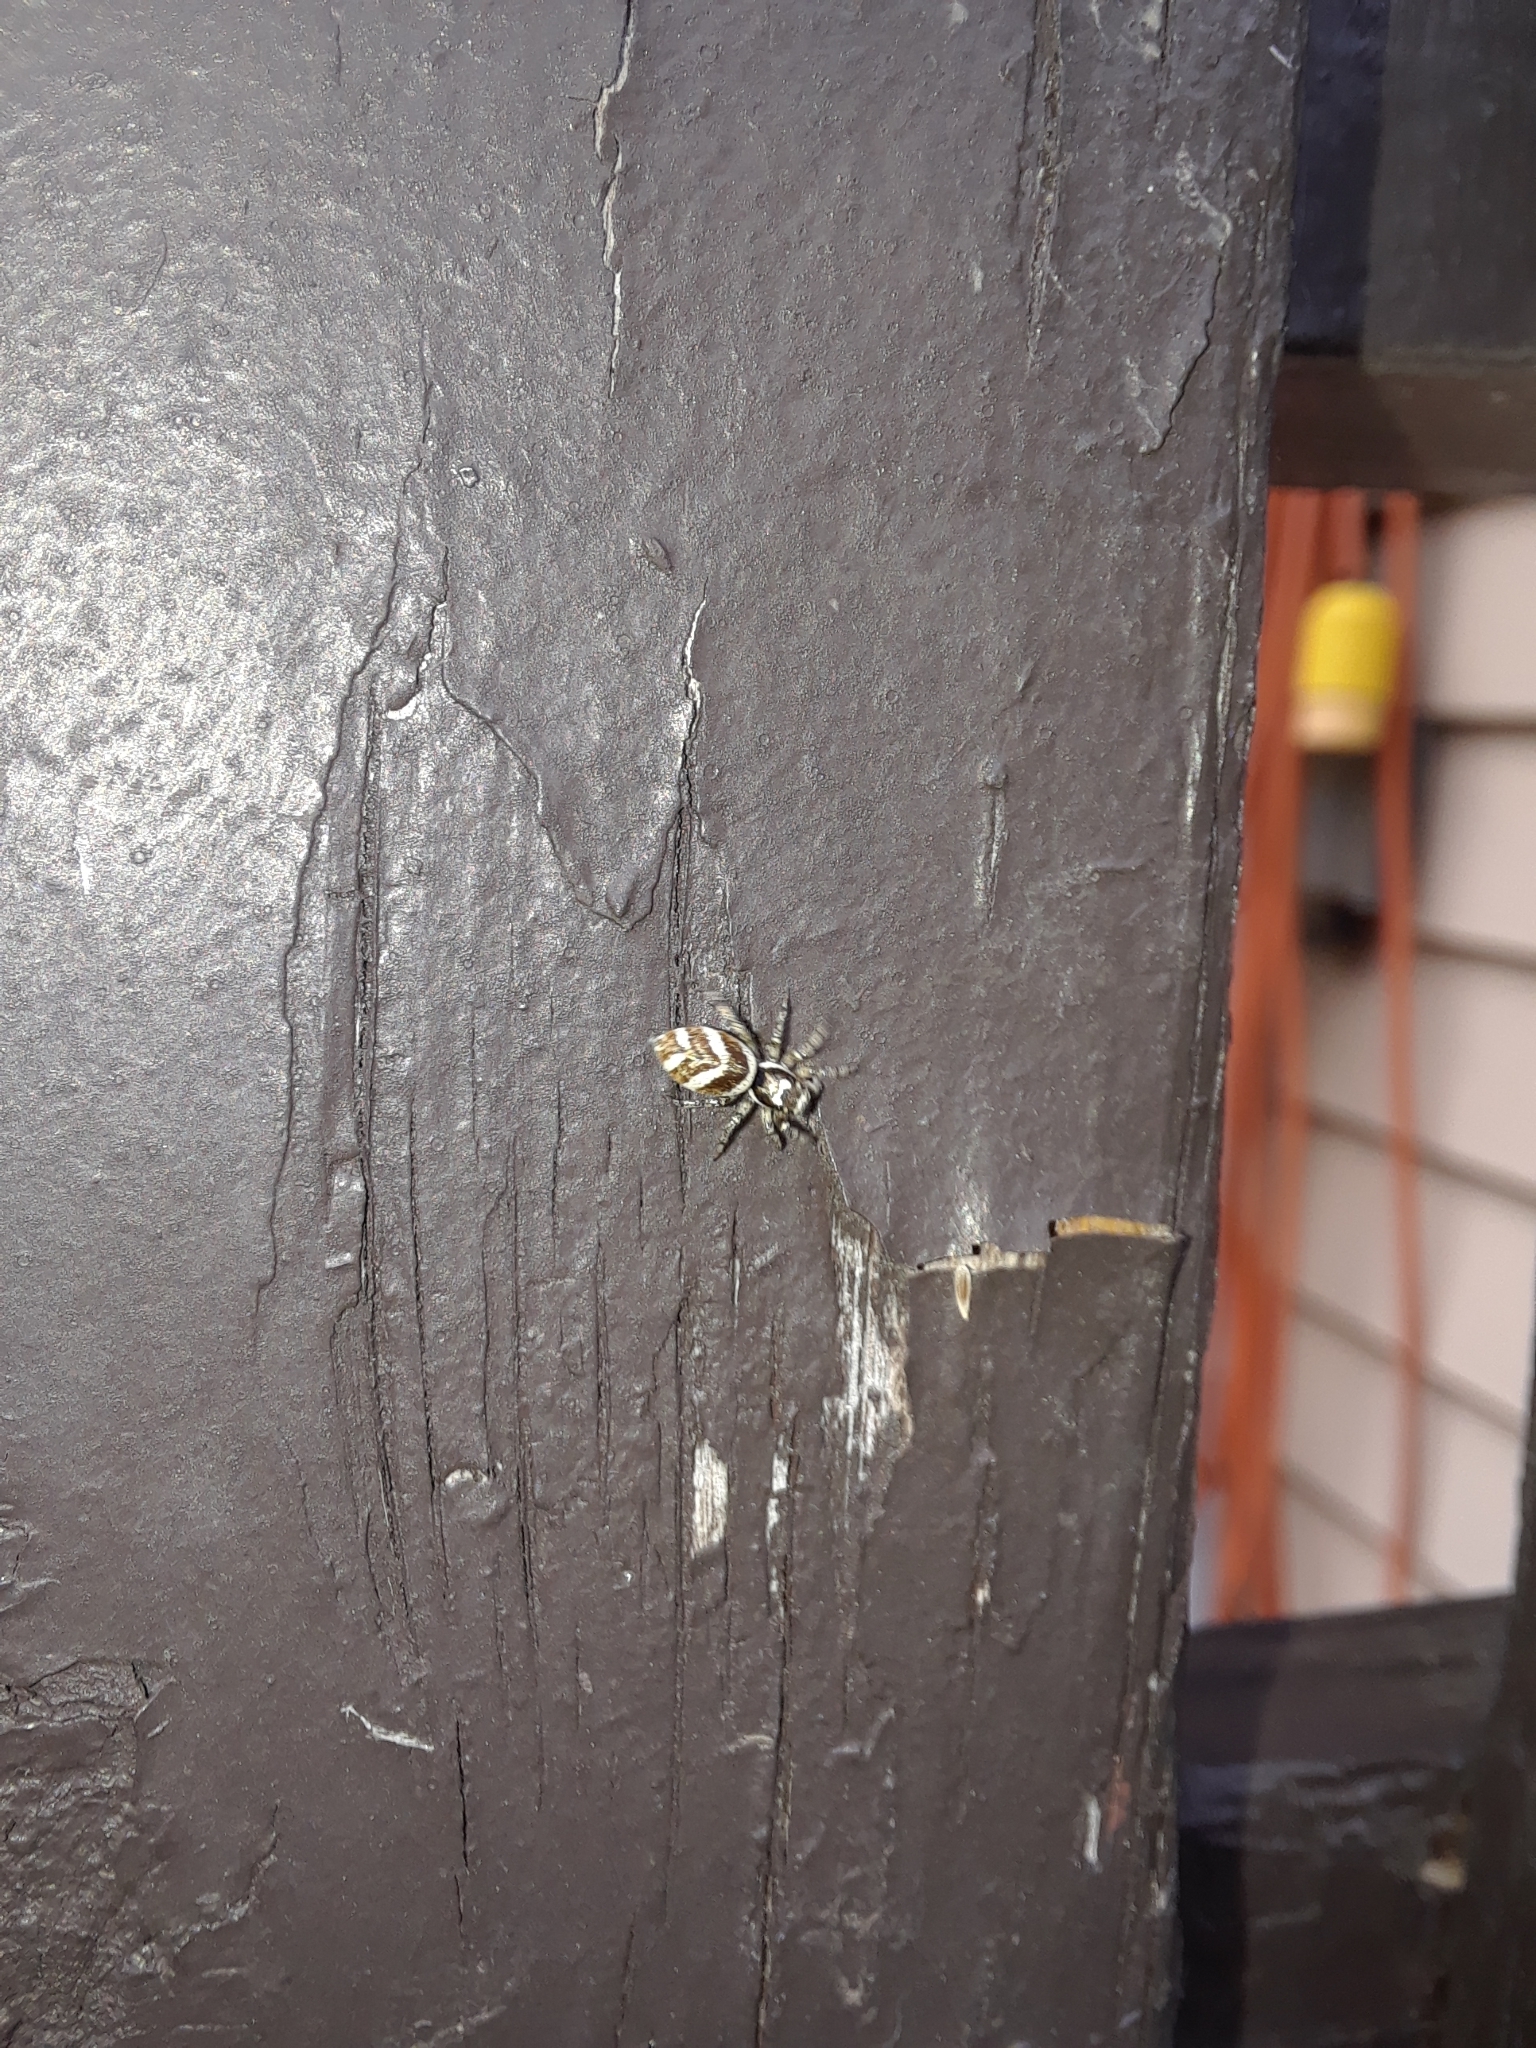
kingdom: Animalia
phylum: Arthropoda
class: Arachnida
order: Araneae
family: Salticidae
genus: Salticus
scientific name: Salticus scenicus
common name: Zebra jumper
